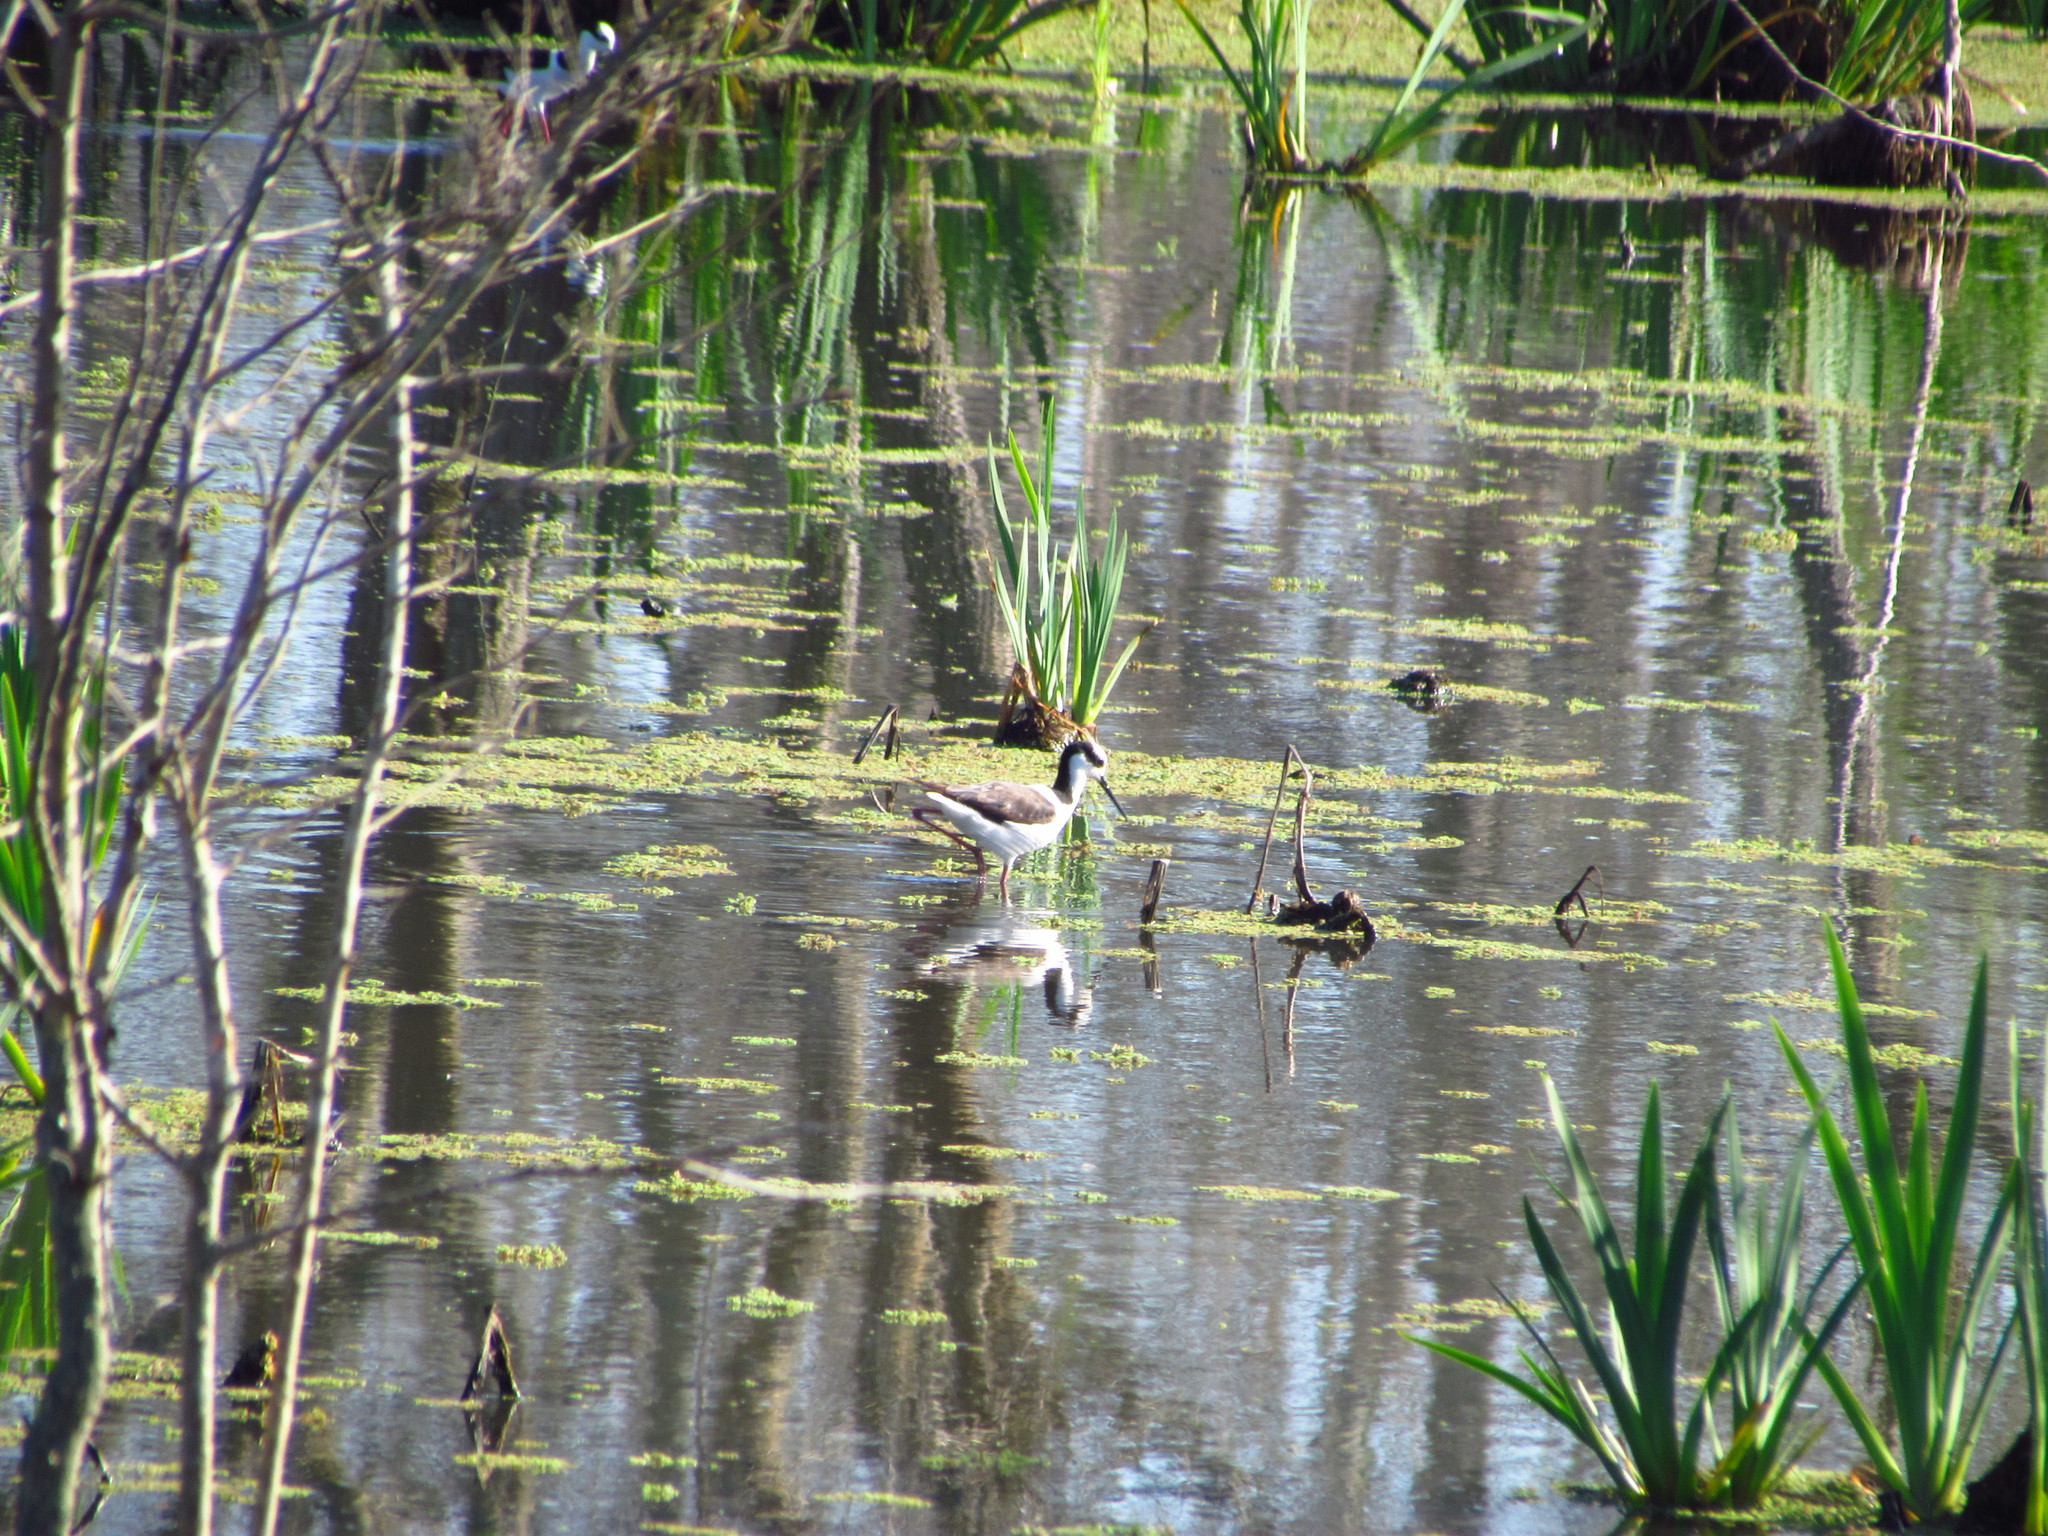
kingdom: Animalia
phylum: Chordata
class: Aves
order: Charadriiformes
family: Recurvirostridae
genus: Himantopus
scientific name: Himantopus mexicanus
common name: Black-necked stilt
